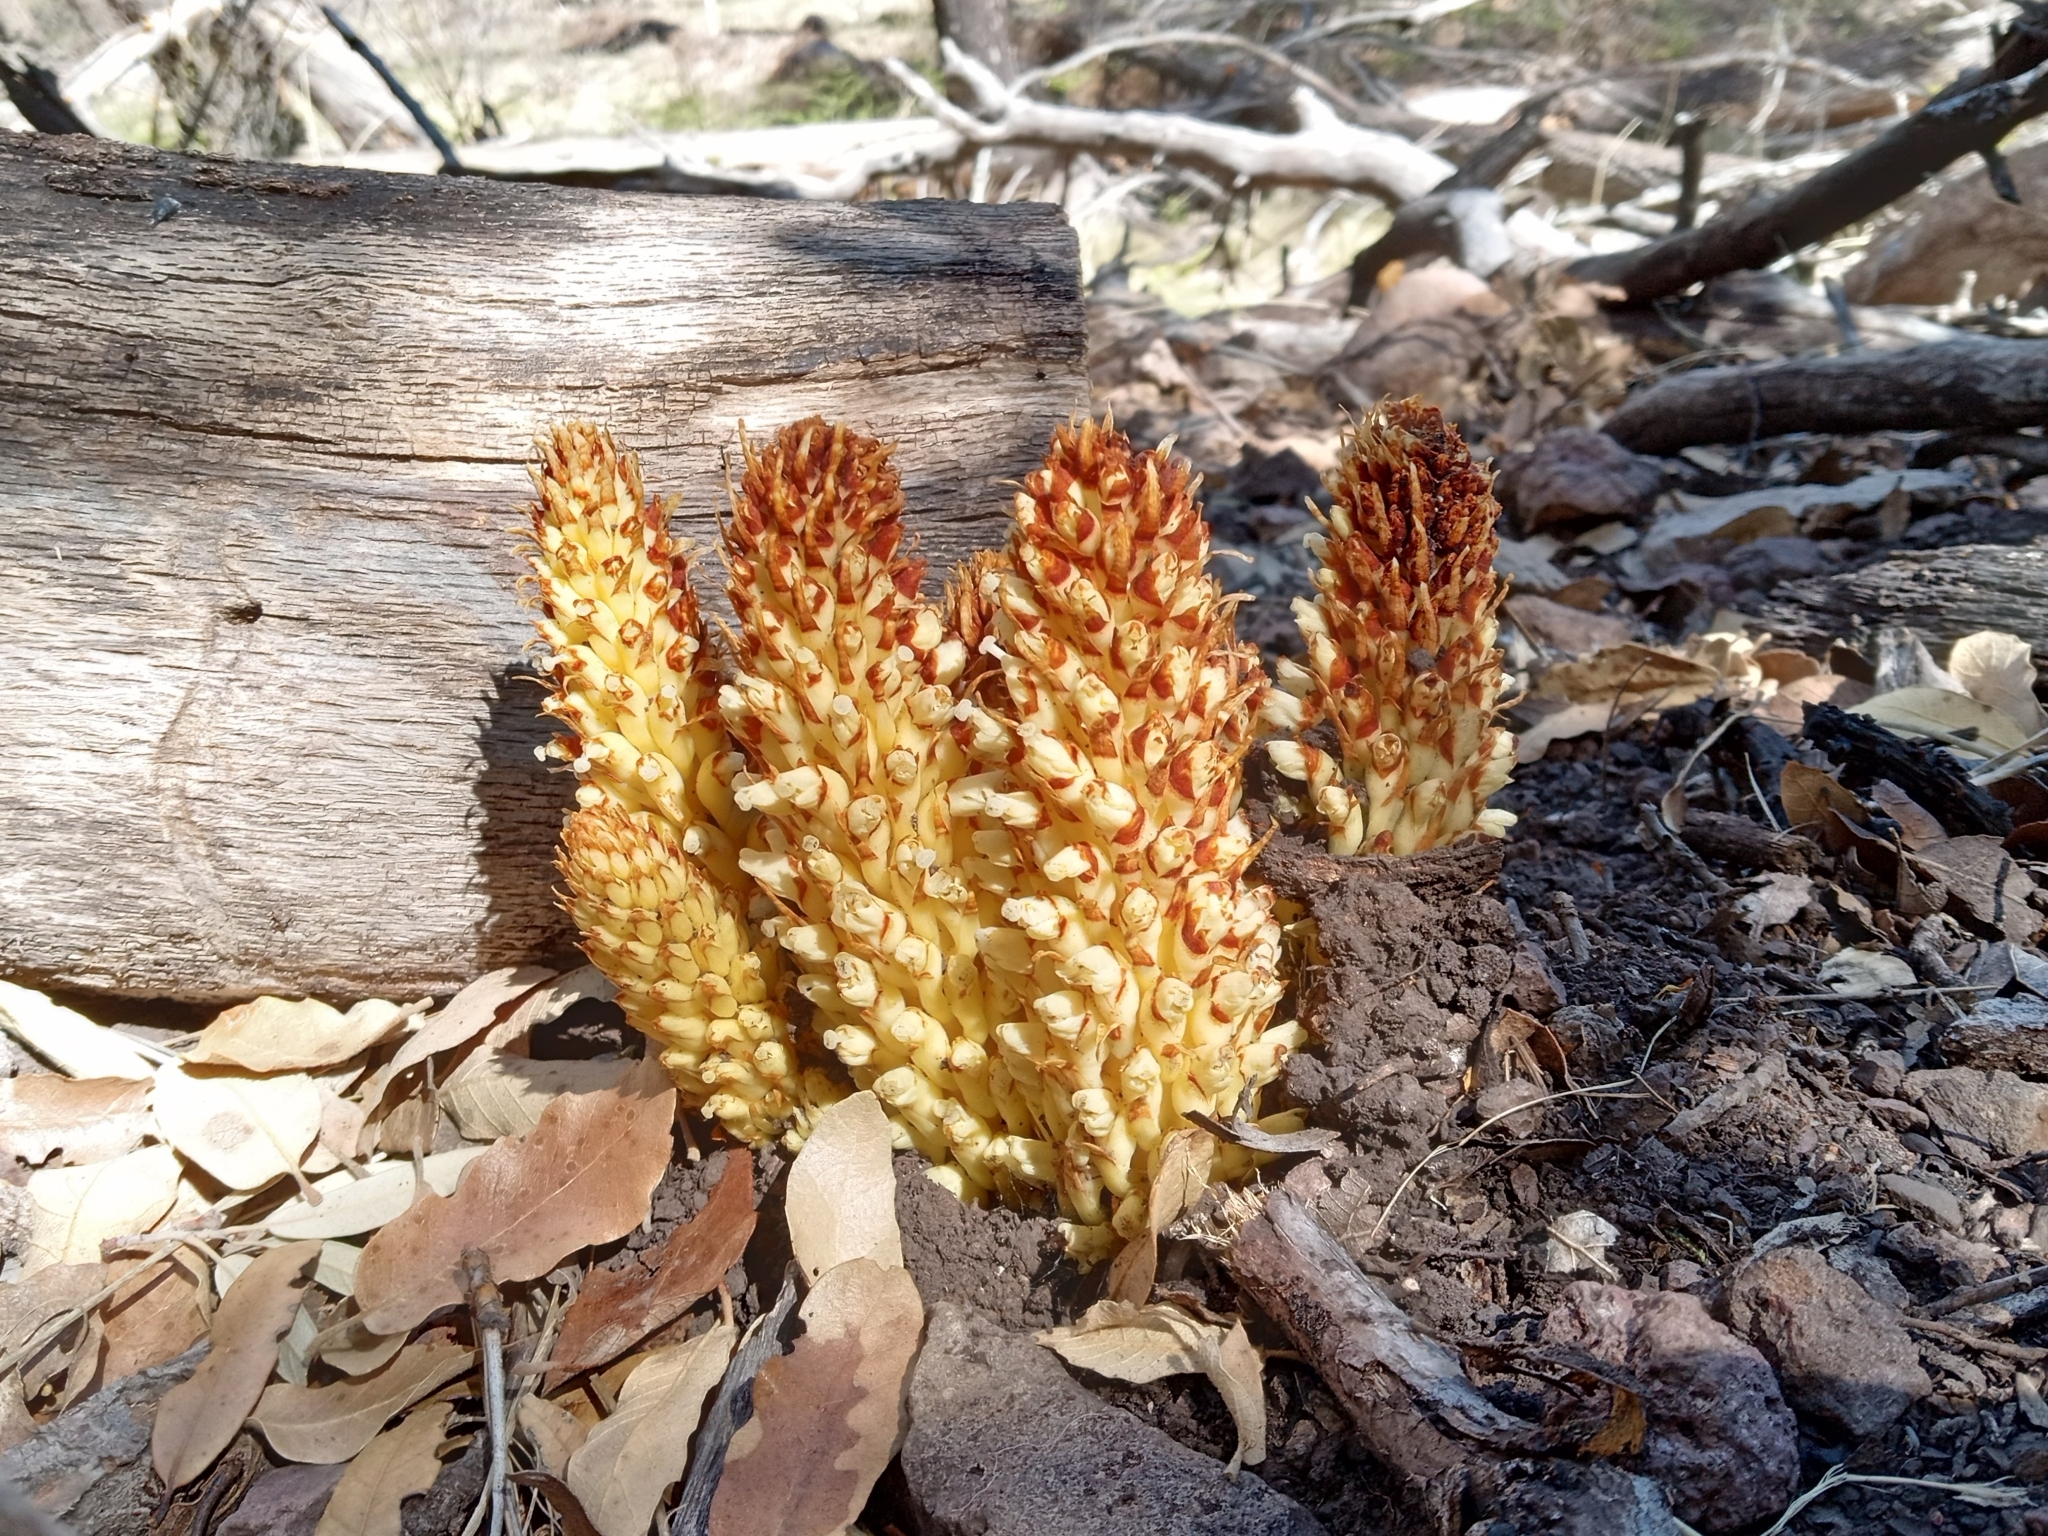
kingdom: Plantae
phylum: Tracheophyta
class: Magnoliopsida
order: Lamiales
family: Orobanchaceae
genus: Conopholis
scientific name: Conopholis alpina
